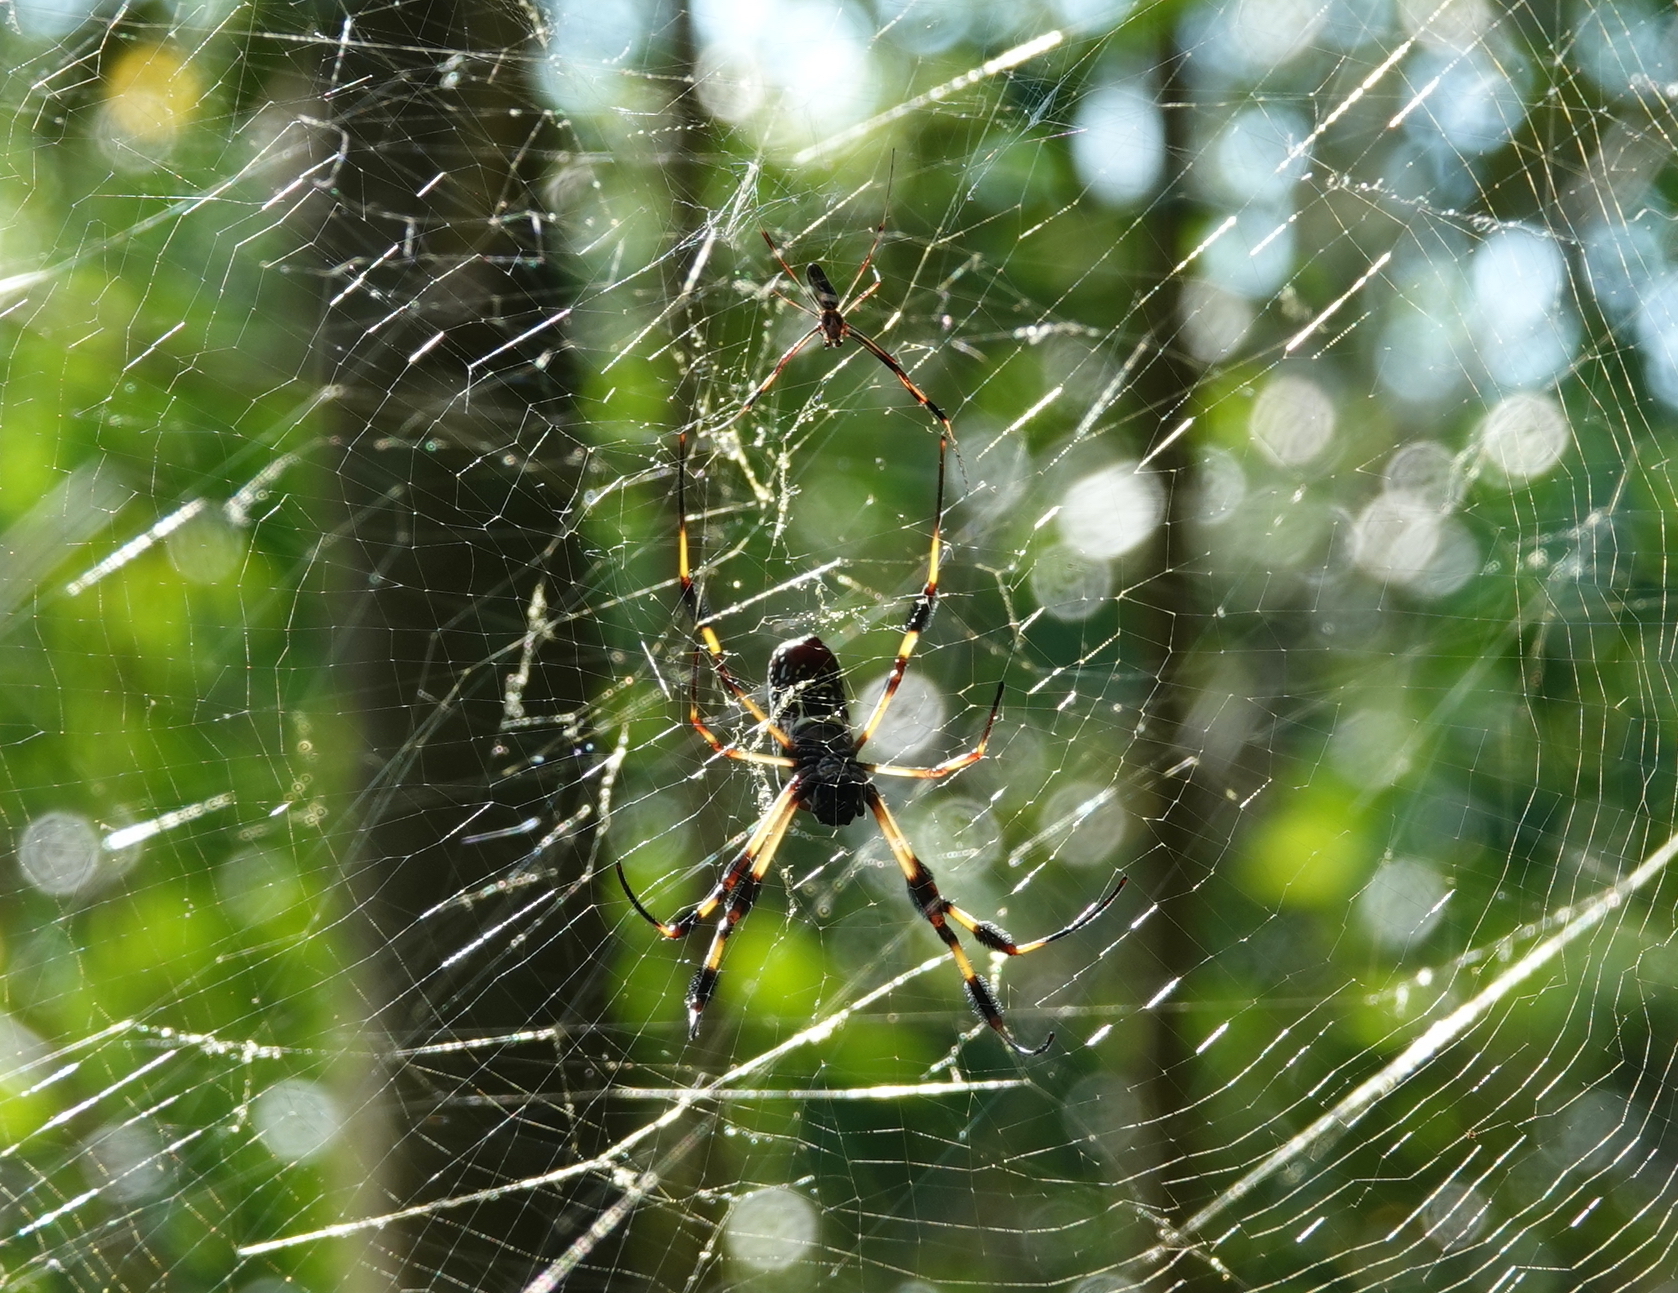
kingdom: Animalia
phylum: Arthropoda
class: Arachnida
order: Araneae
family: Araneidae
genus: Trichonephila
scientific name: Trichonephila clavipes
